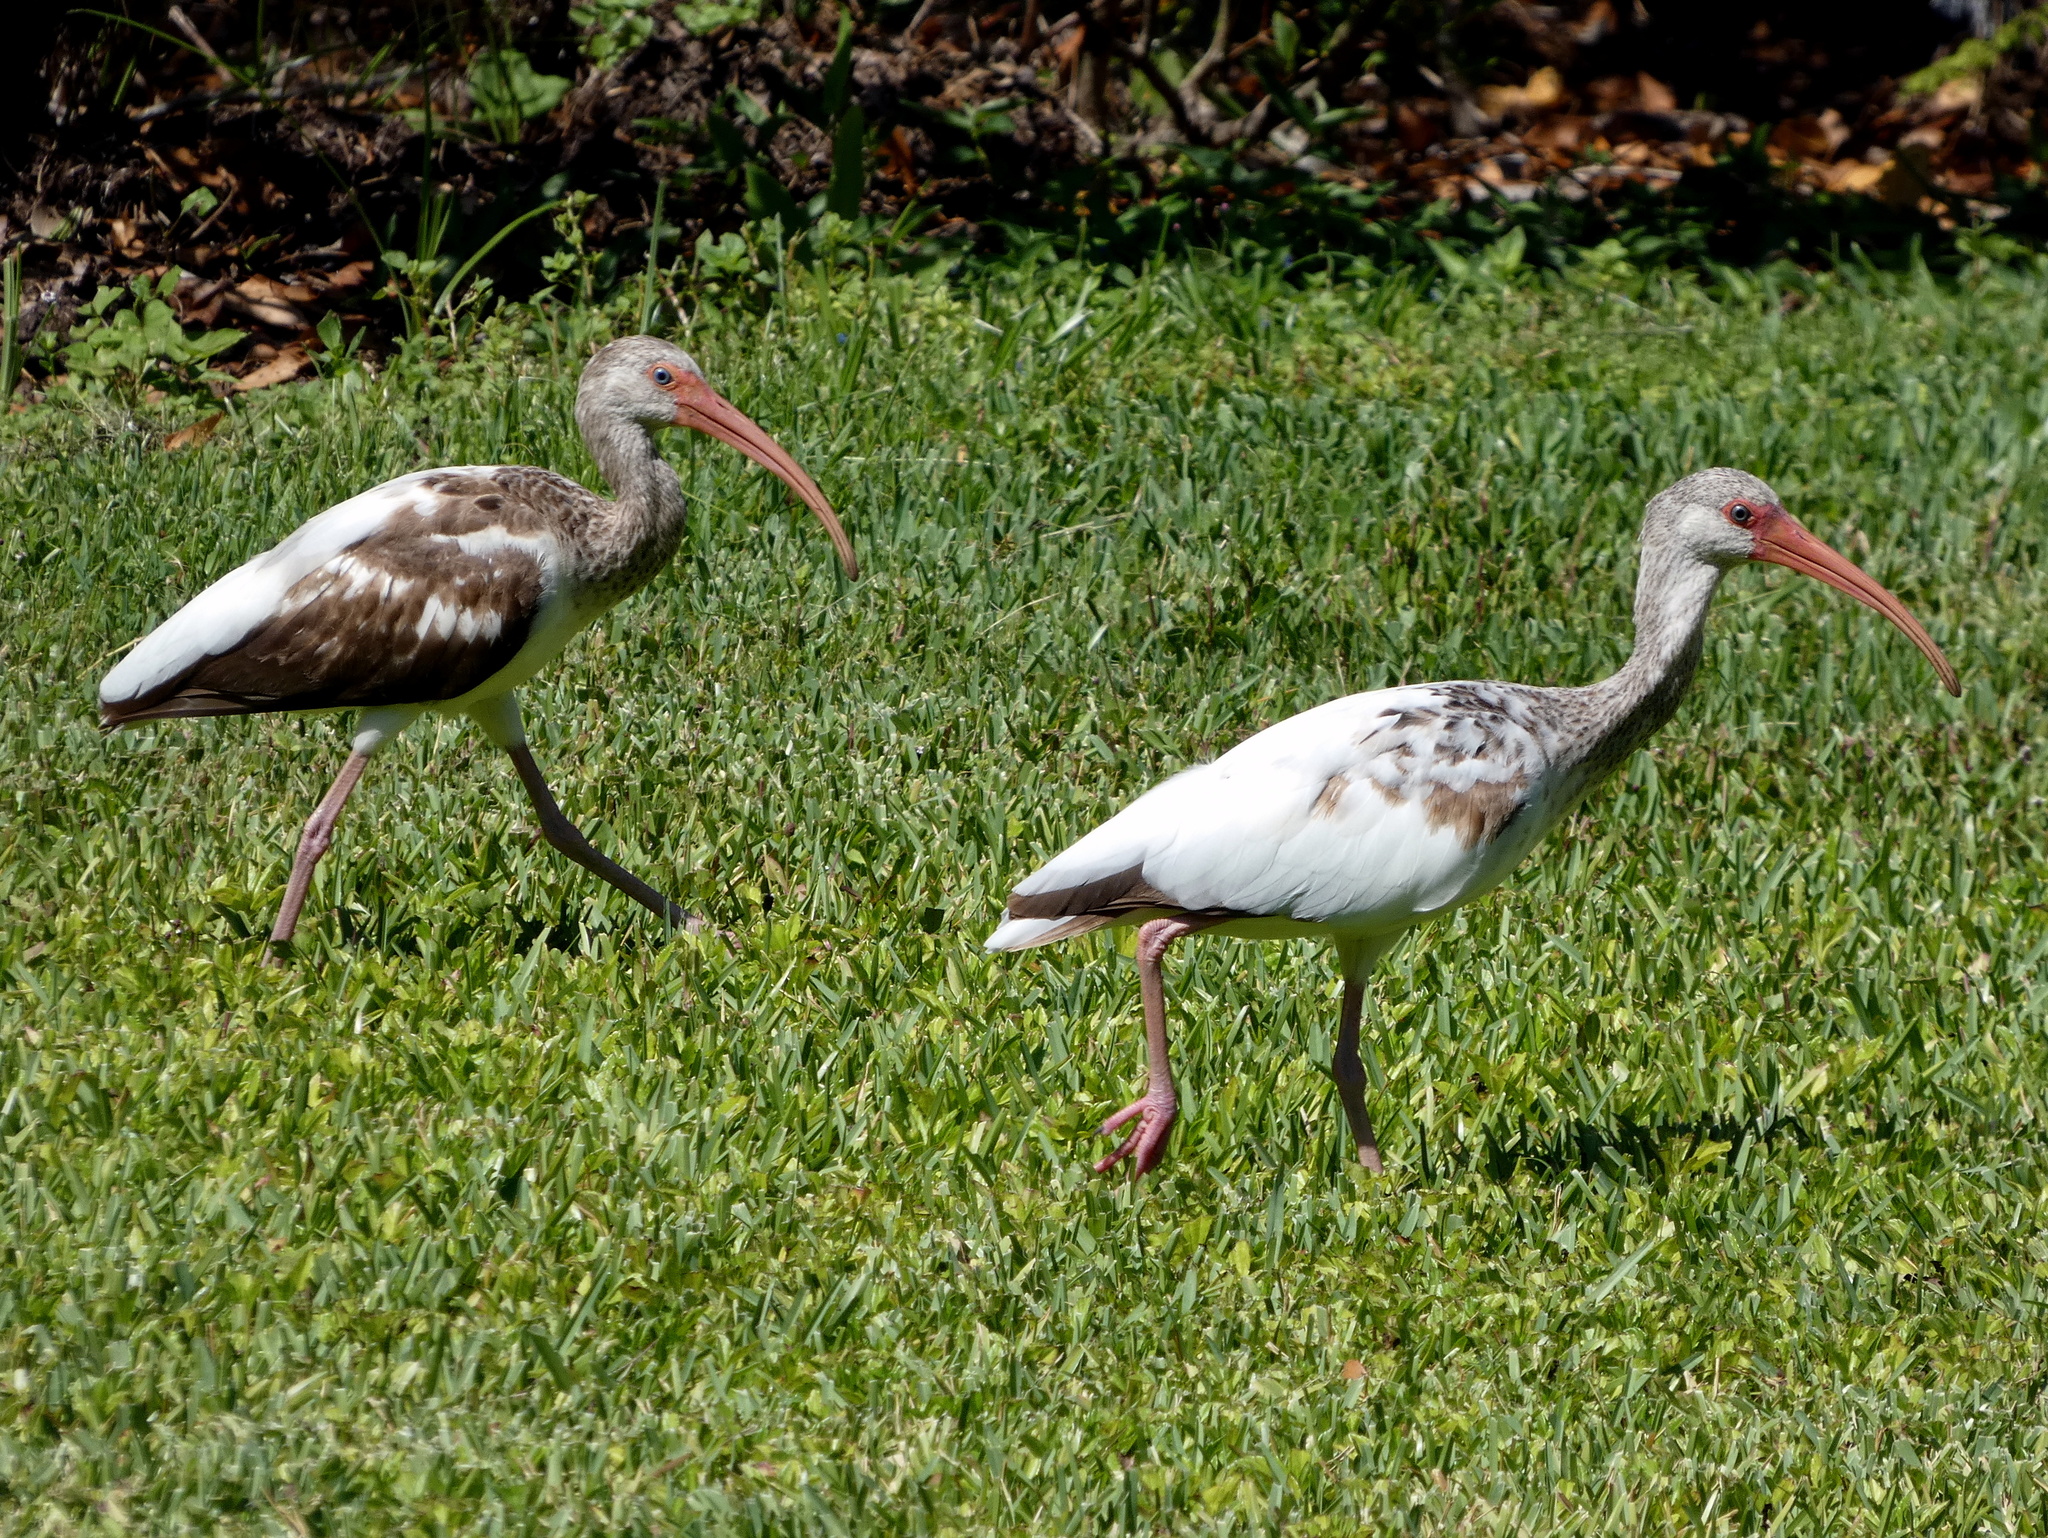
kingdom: Animalia
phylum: Chordata
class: Aves
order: Pelecaniformes
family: Threskiornithidae
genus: Eudocimus
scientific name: Eudocimus albus
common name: White ibis
